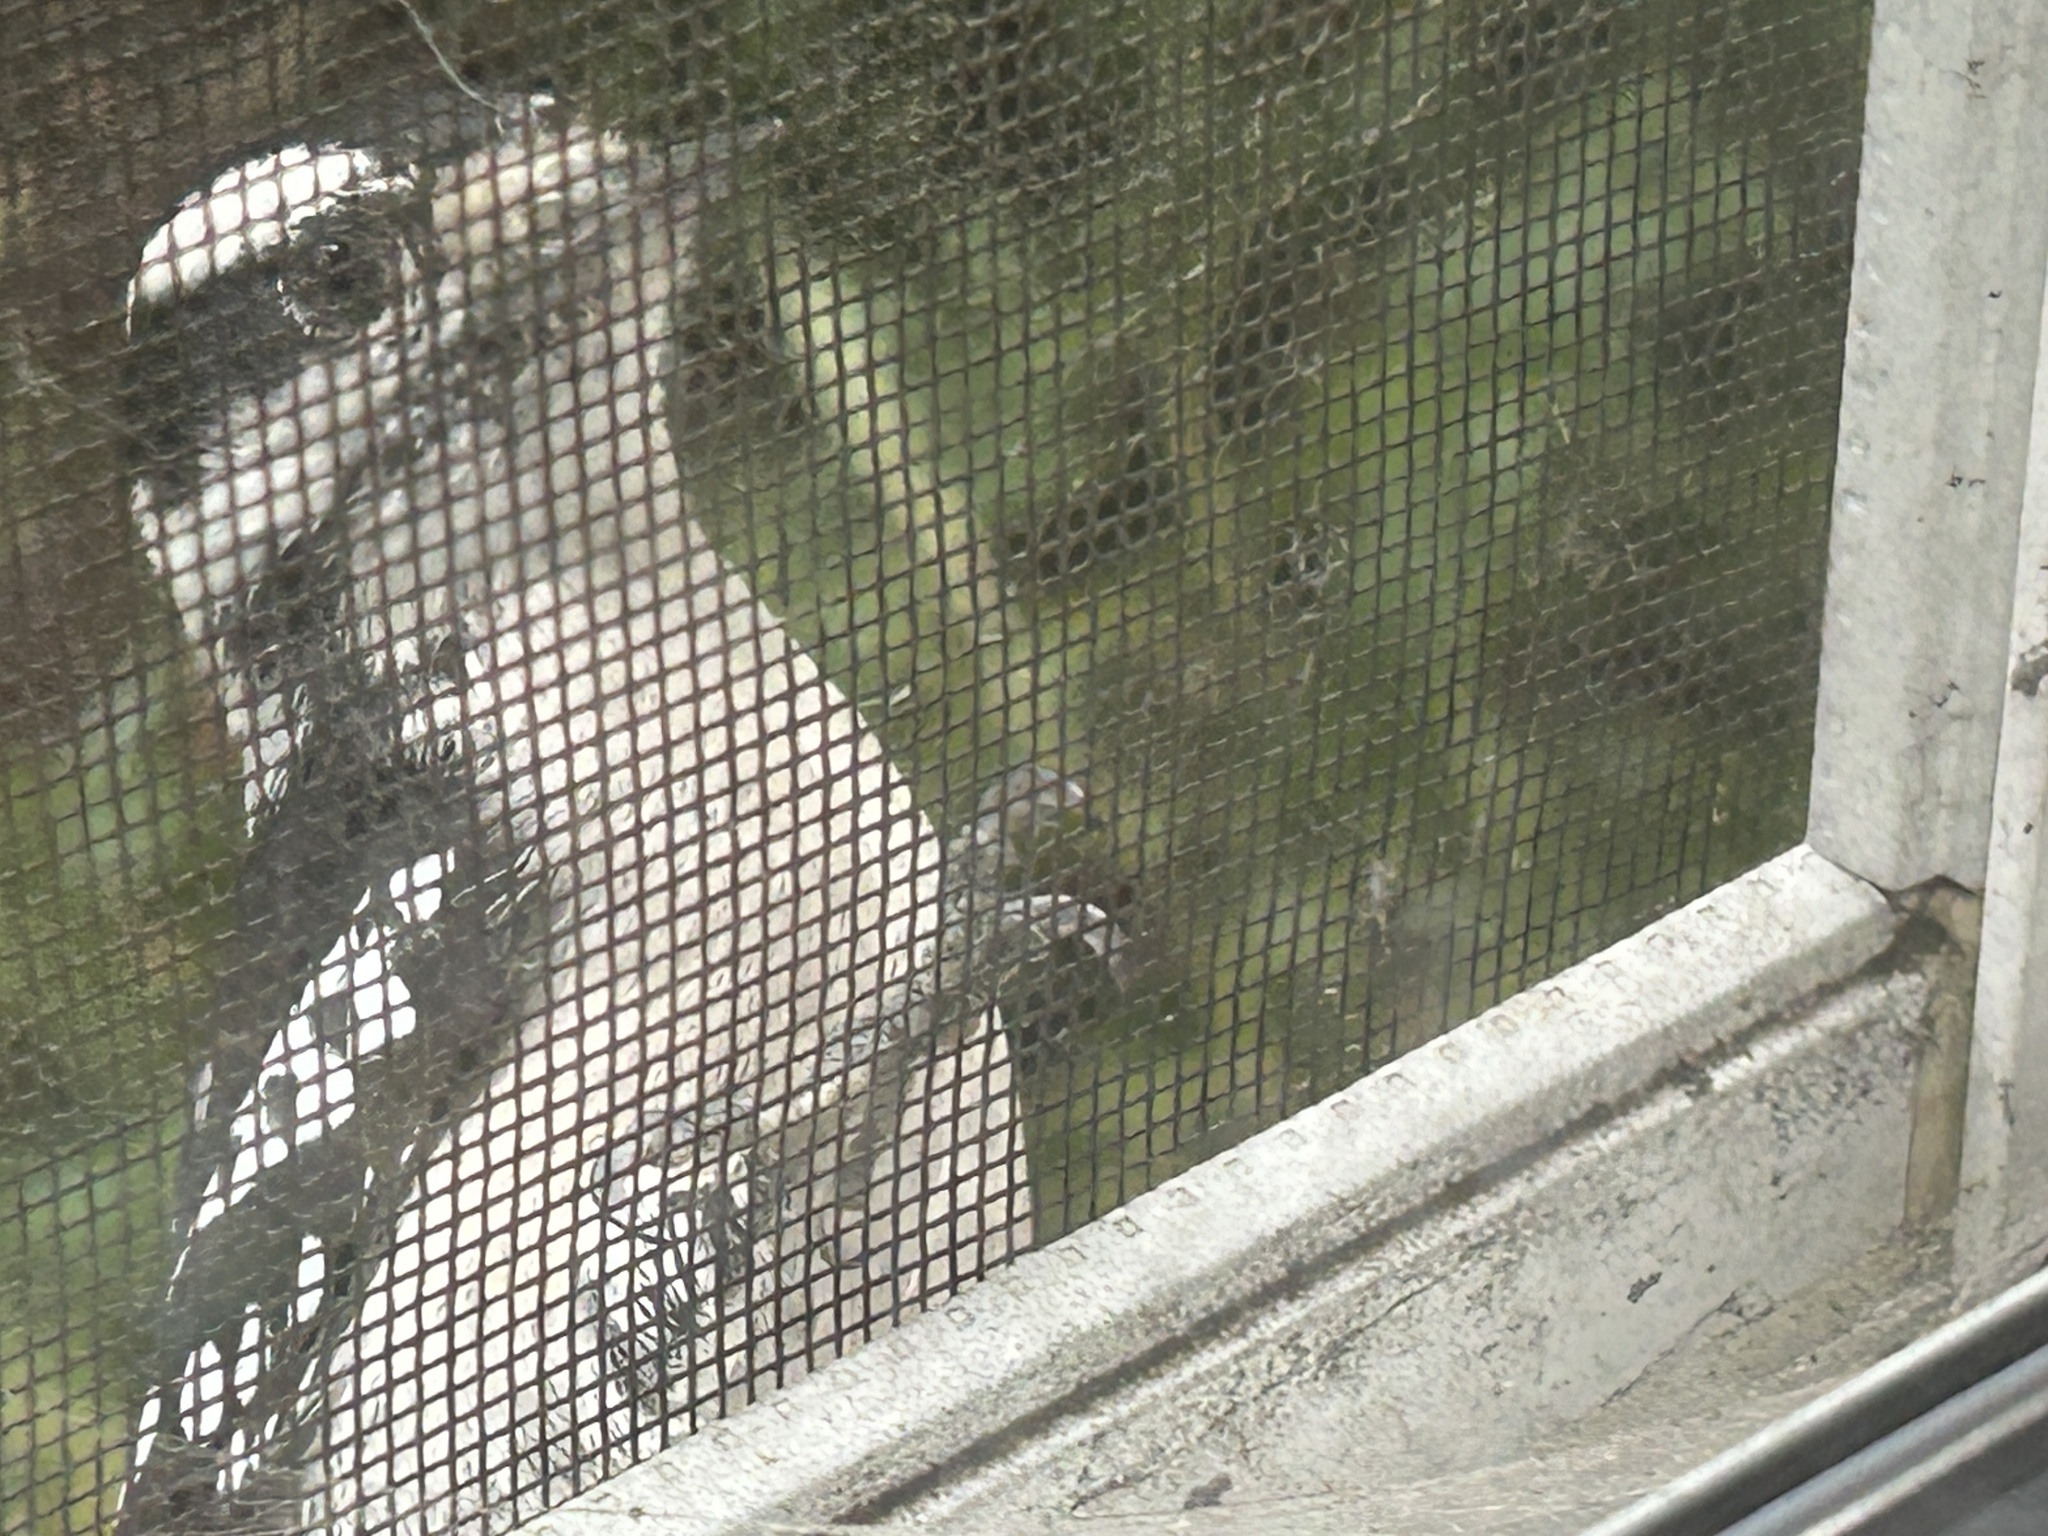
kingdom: Animalia
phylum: Chordata
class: Aves
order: Piciformes
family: Picidae
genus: Dryobates
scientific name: Dryobates pubescens
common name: Downy woodpecker
